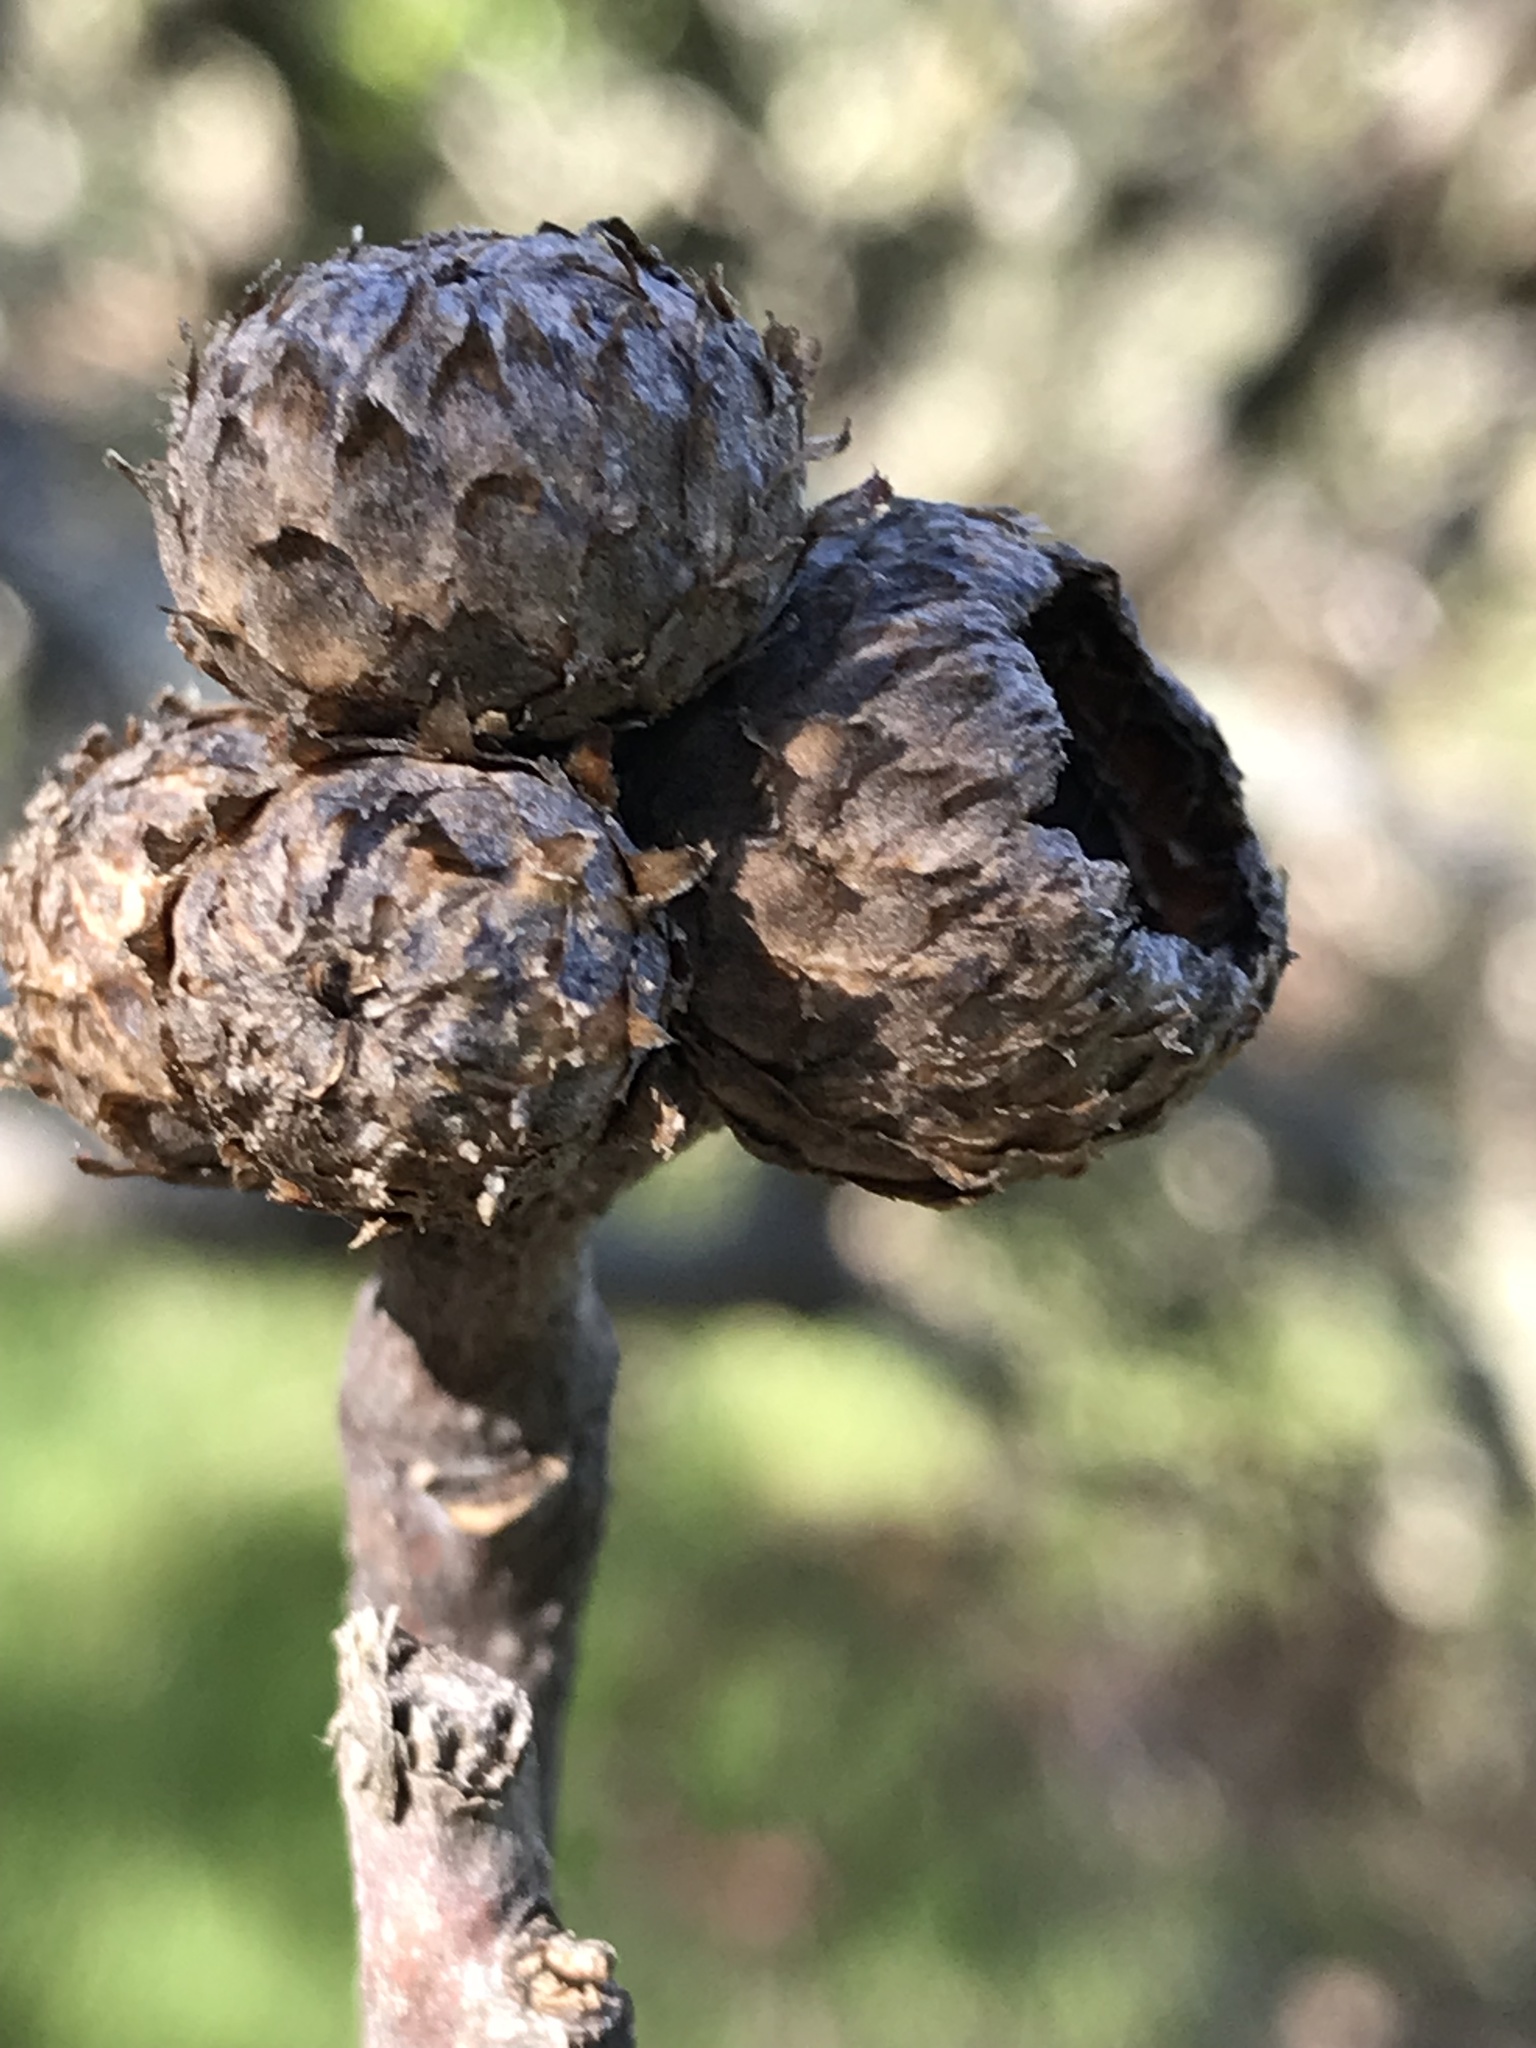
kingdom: Plantae
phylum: Tracheophyta
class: Magnoliopsida
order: Fagales
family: Fagaceae
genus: Quercus
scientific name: Quercus kelloggii
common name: California black oak
